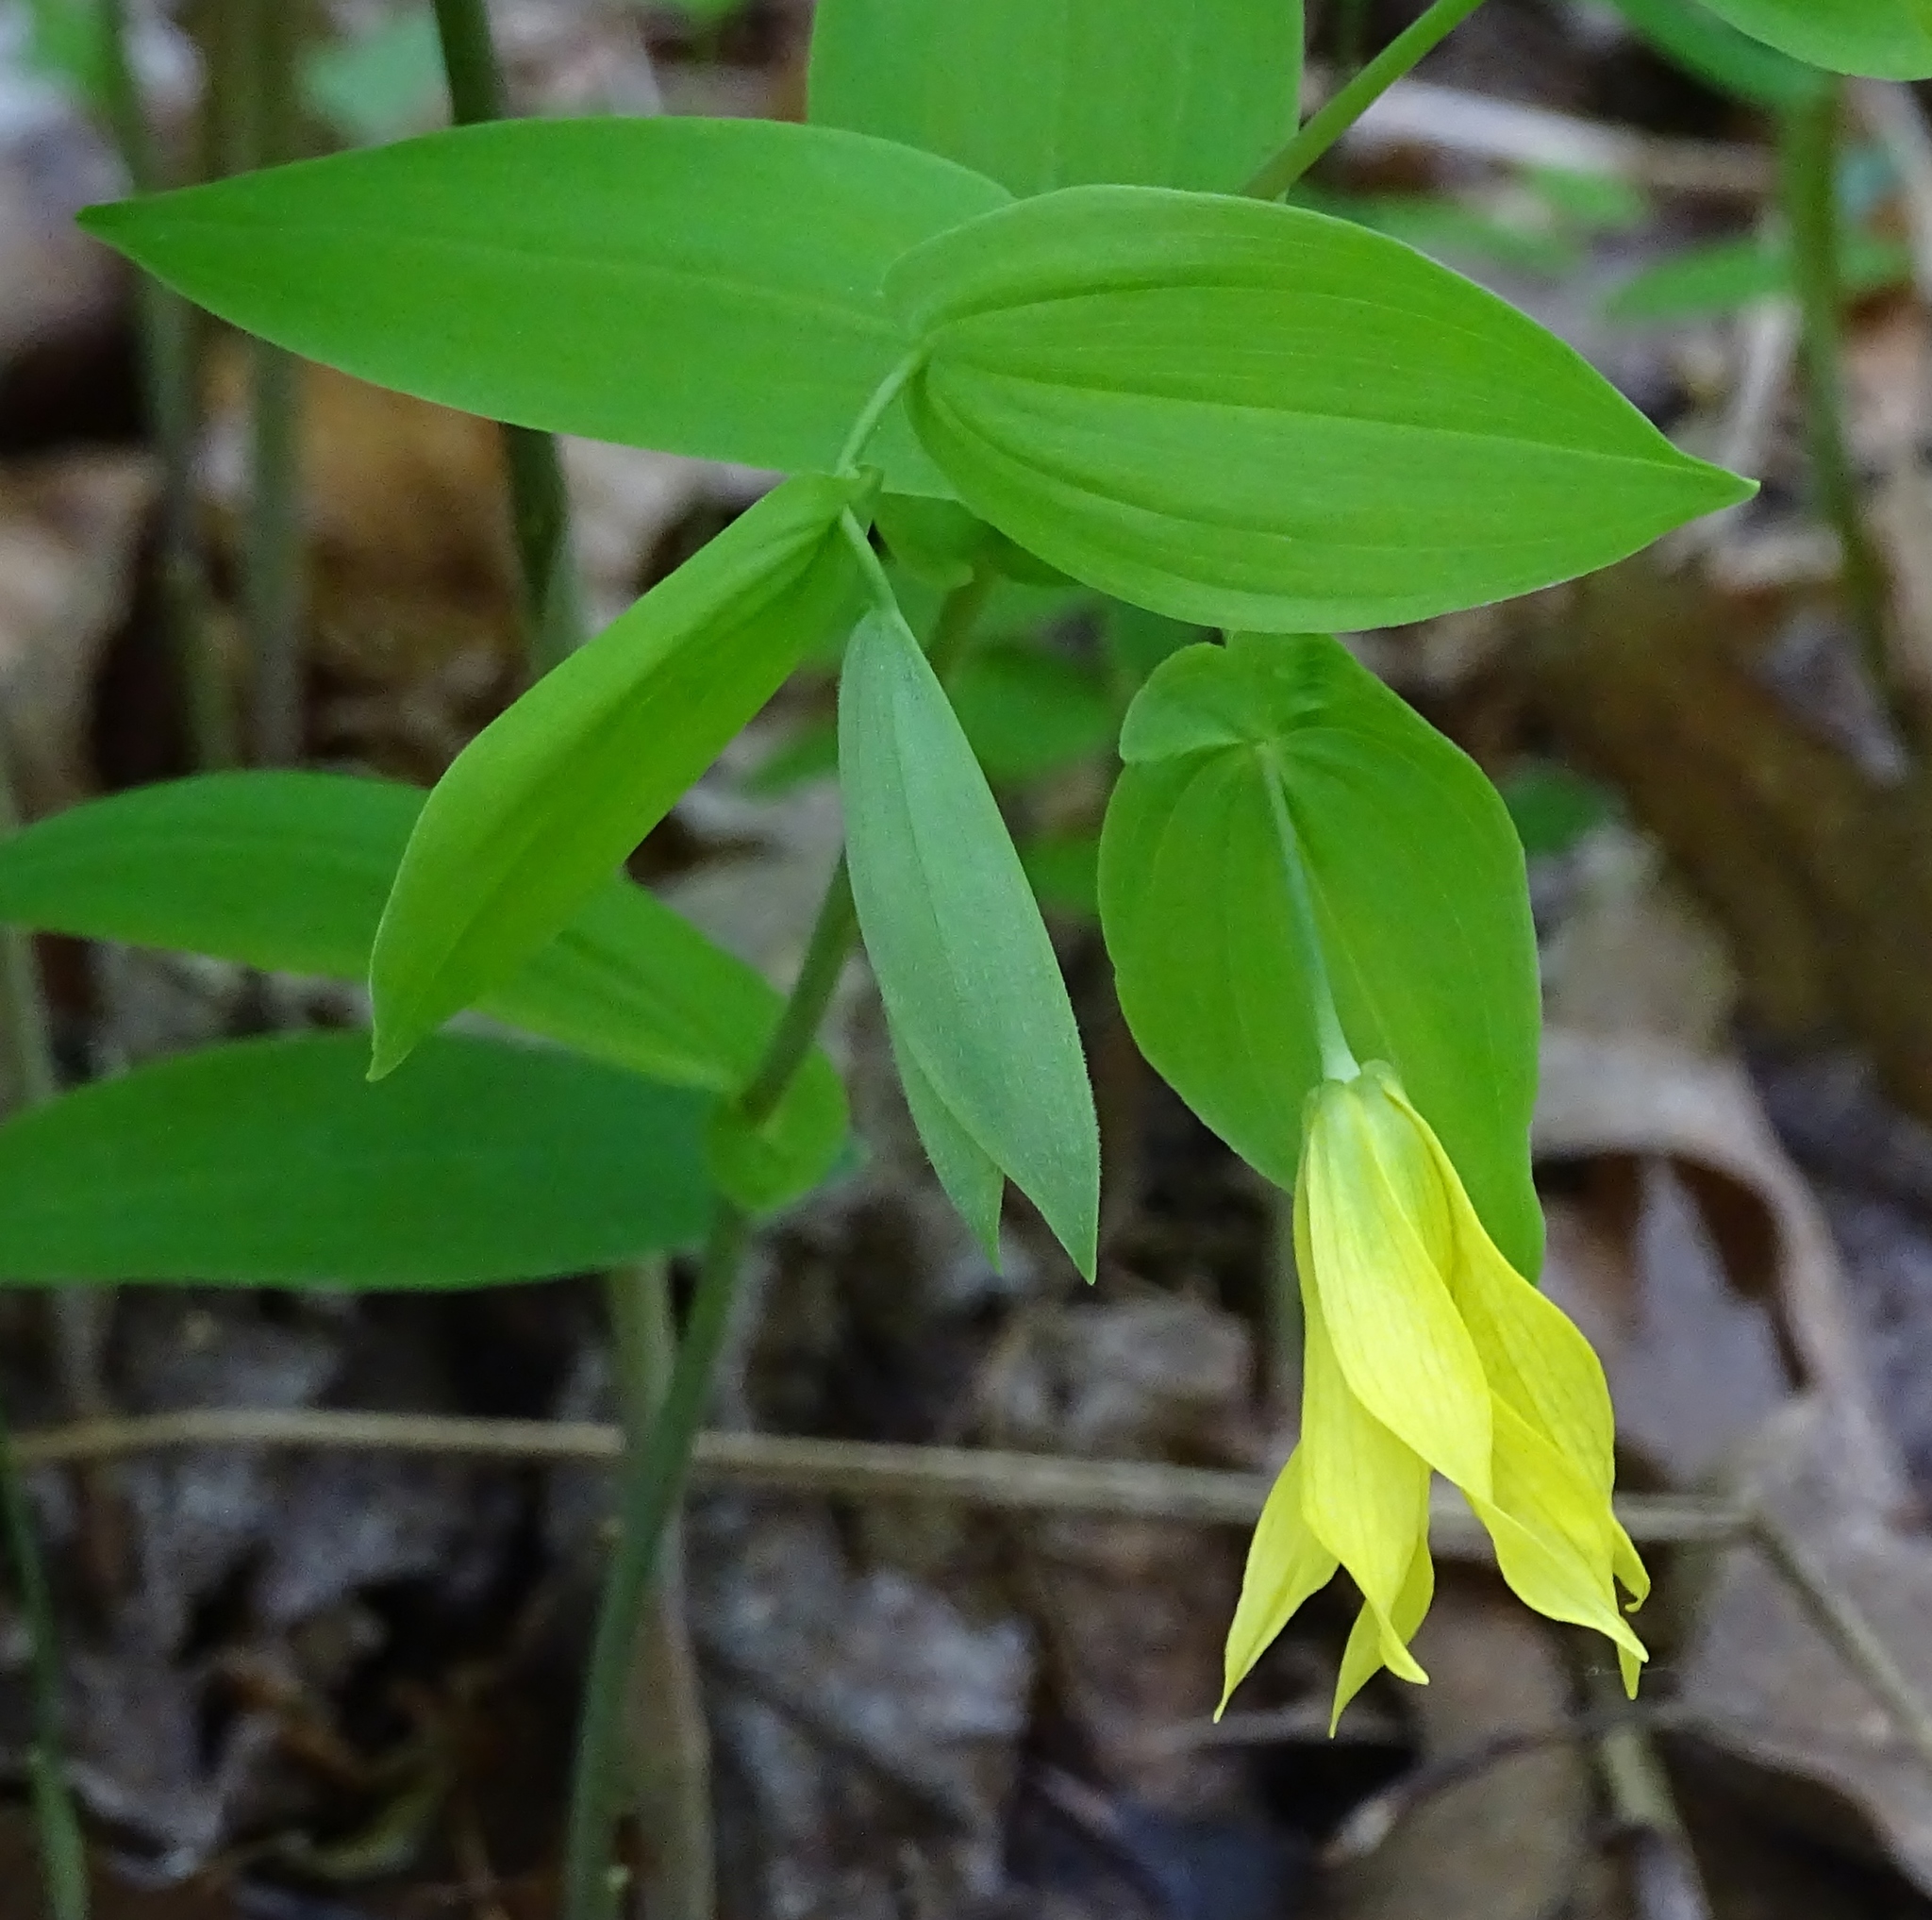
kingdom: Plantae
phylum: Tracheophyta
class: Liliopsida
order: Liliales
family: Colchicaceae
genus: Uvularia
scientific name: Uvularia grandiflora
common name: Bellwort
